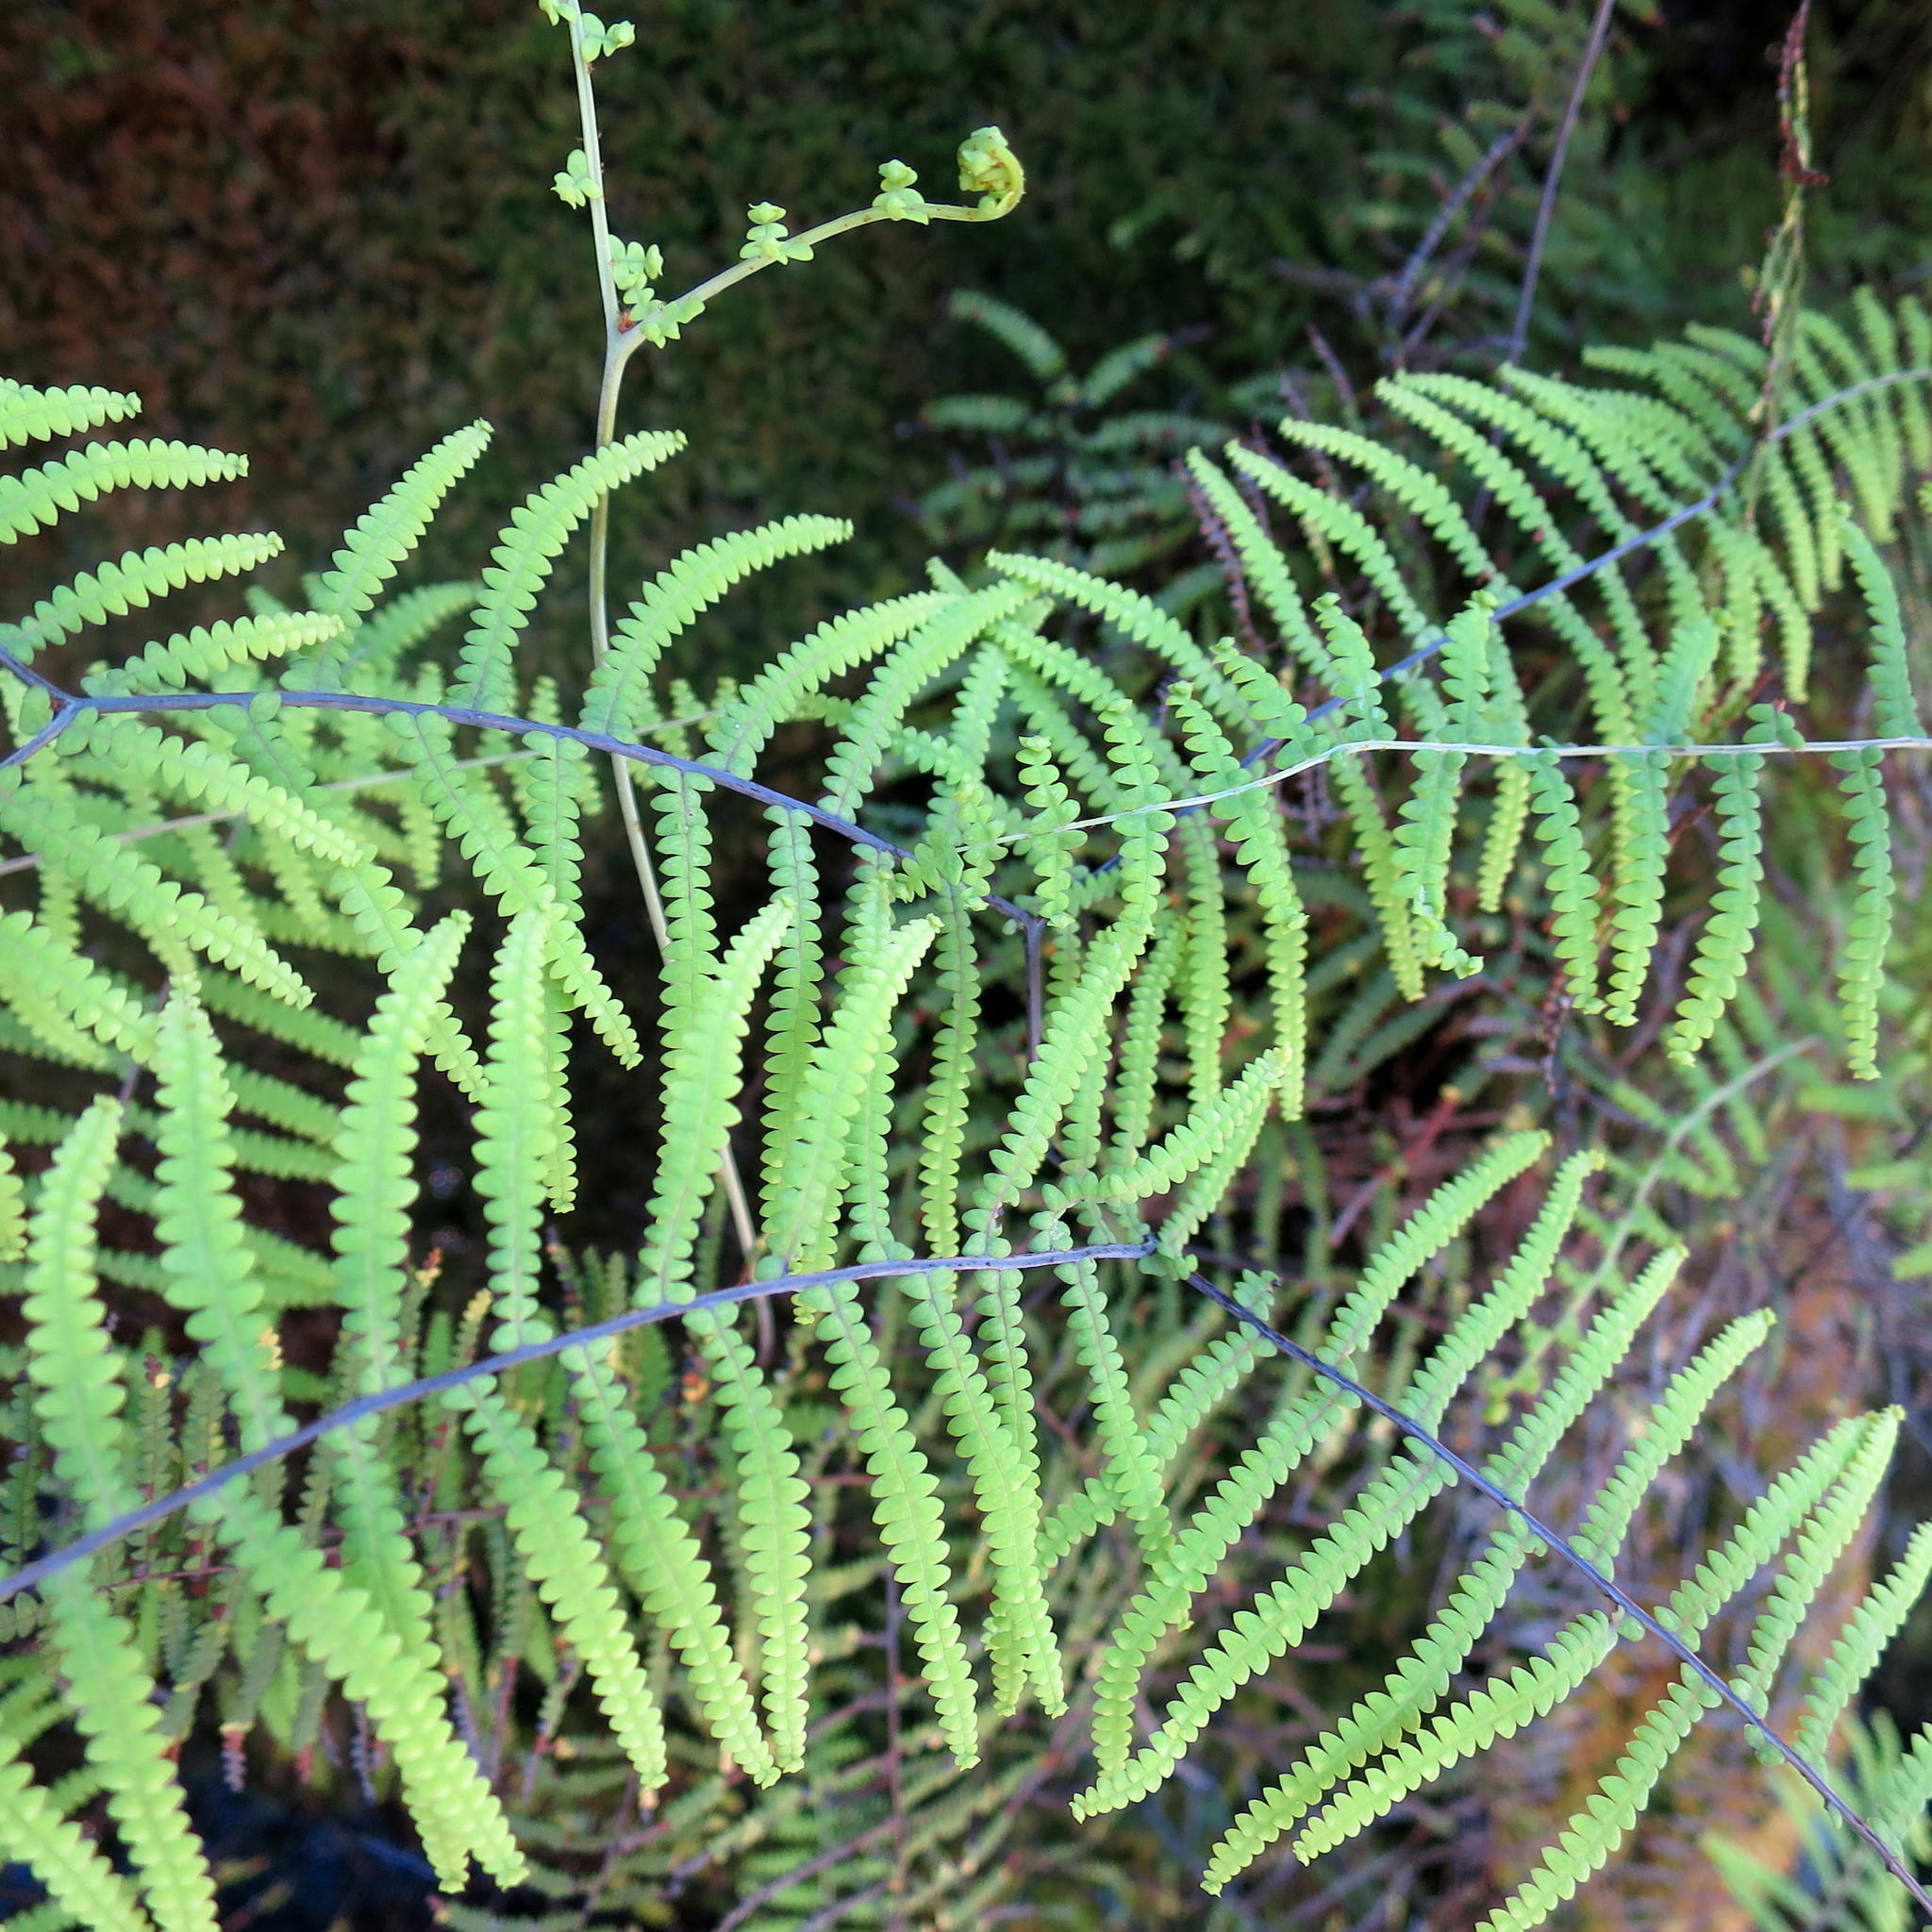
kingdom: Plantae
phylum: Tracheophyta
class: Polypodiopsida
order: Gleicheniales
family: Gleicheniaceae
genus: Gleichenia
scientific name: Gleichenia polypodioides
